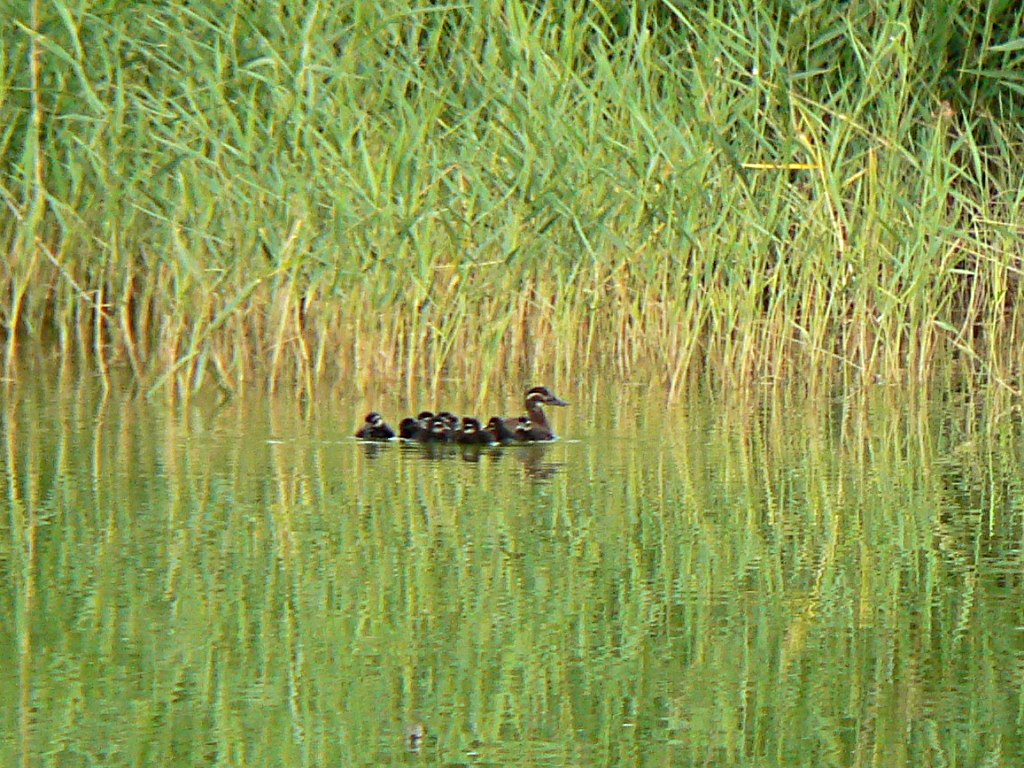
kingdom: Animalia
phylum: Chordata
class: Aves
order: Anseriformes
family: Anatidae
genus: Oxyura
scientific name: Oxyura leucocephala
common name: White-headed duck
